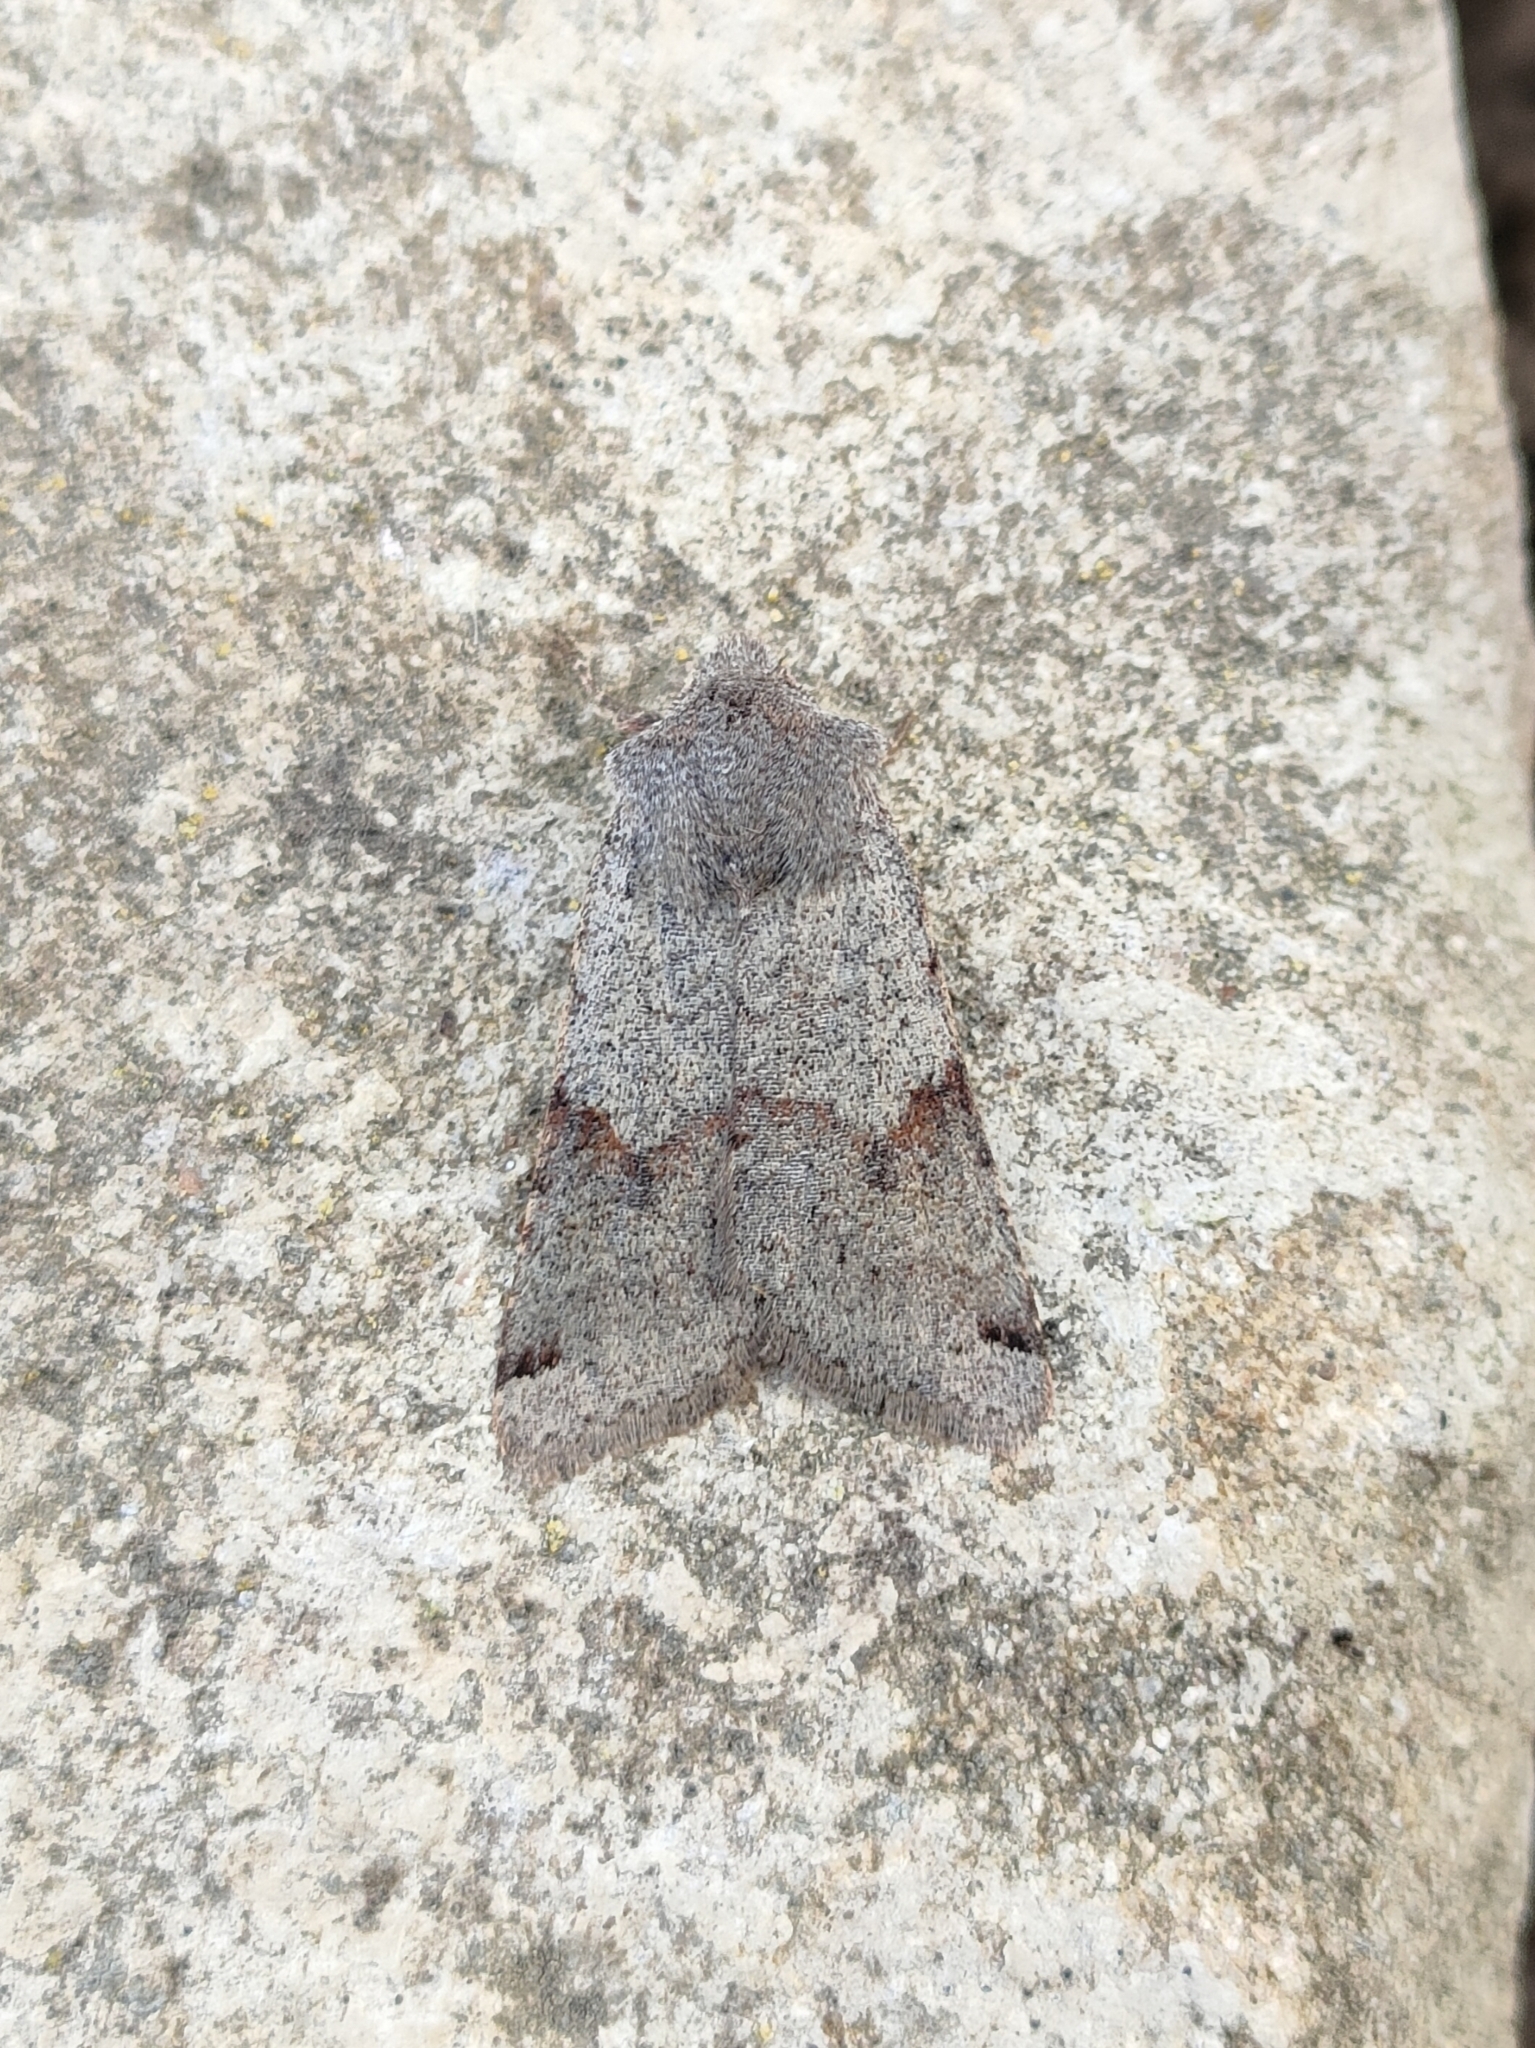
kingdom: Animalia
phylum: Arthropoda
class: Insecta
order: Lepidoptera
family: Noctuidae
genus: Agrochola
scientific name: Agrochola meridionalis
